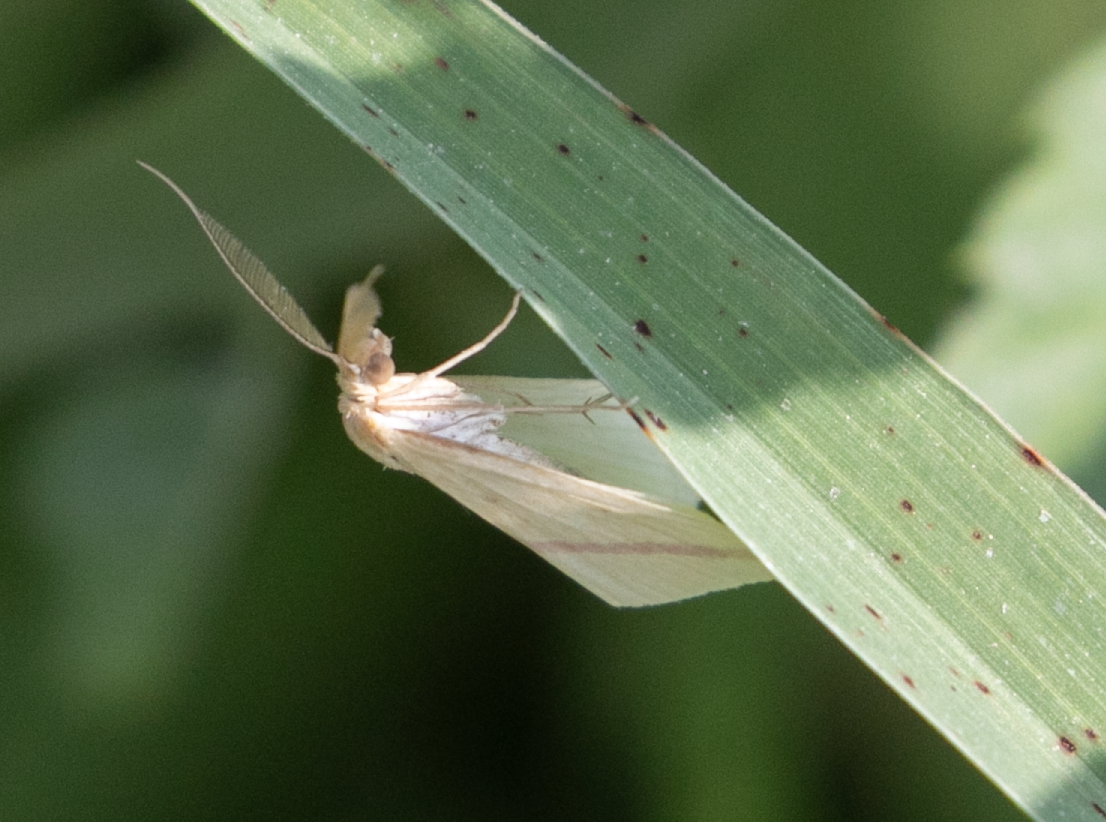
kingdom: Animalia
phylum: Arthropoda
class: Insecta
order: Lepidoptera
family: Geometridae
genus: Rhodometra
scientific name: Rhodometra sacraria
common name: Vestal
